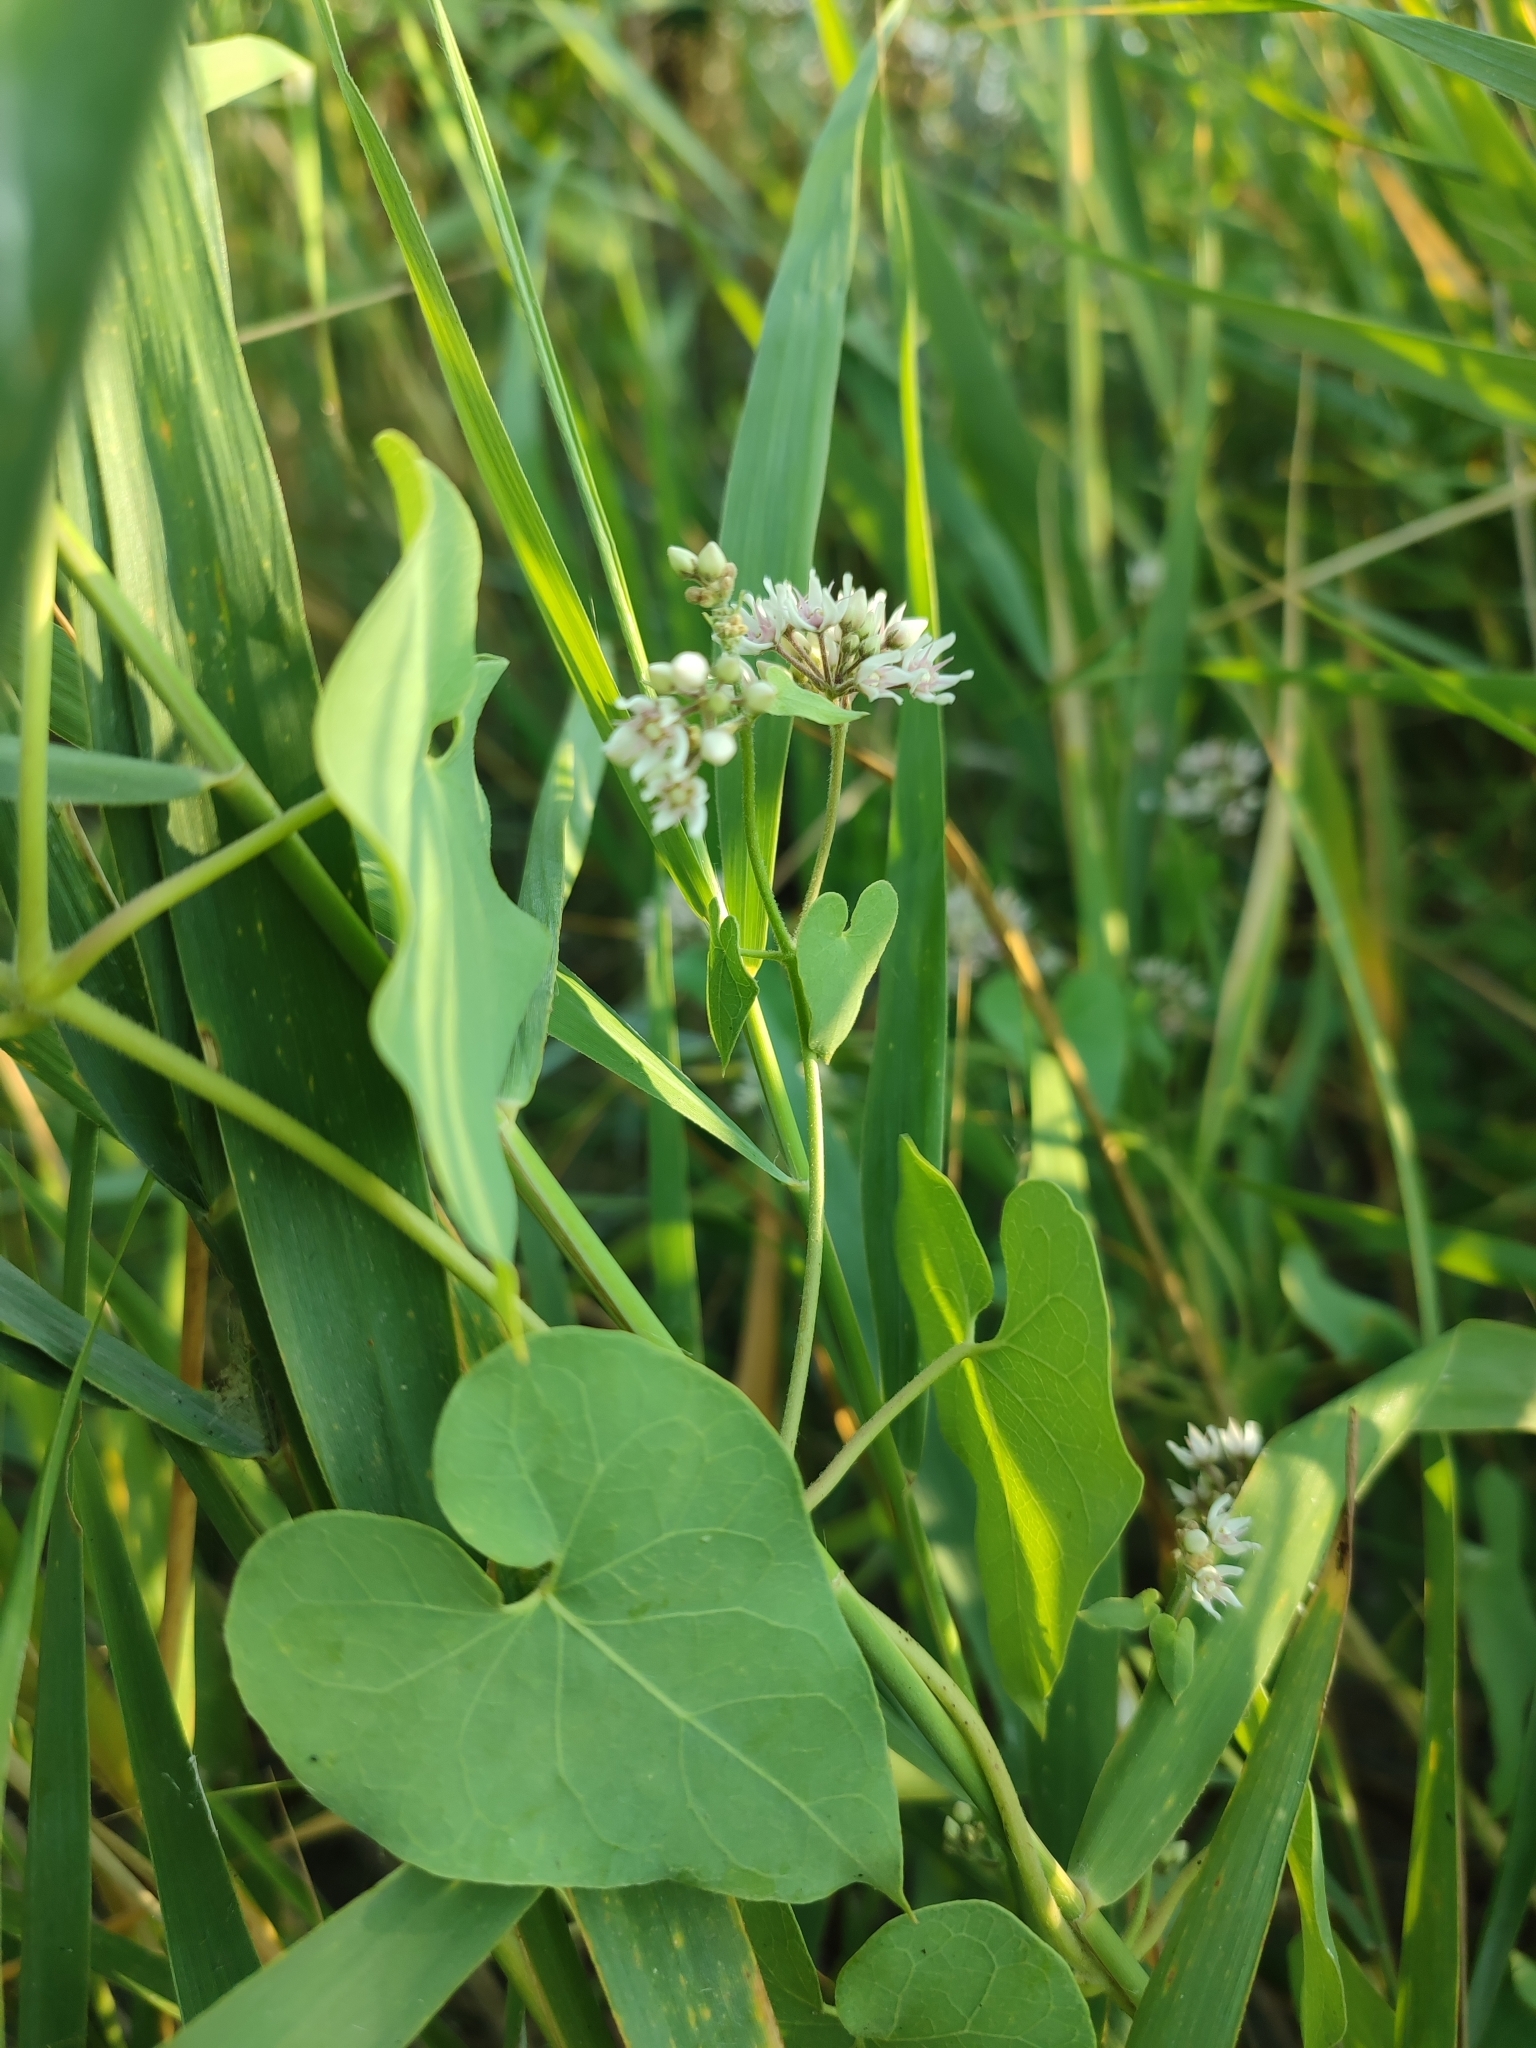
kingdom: Plantae
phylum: Tracheophyta
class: Magnoliopsida
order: Gentianales
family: Apocynaceae
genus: Cynanchum
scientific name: Cynanchum acutum
